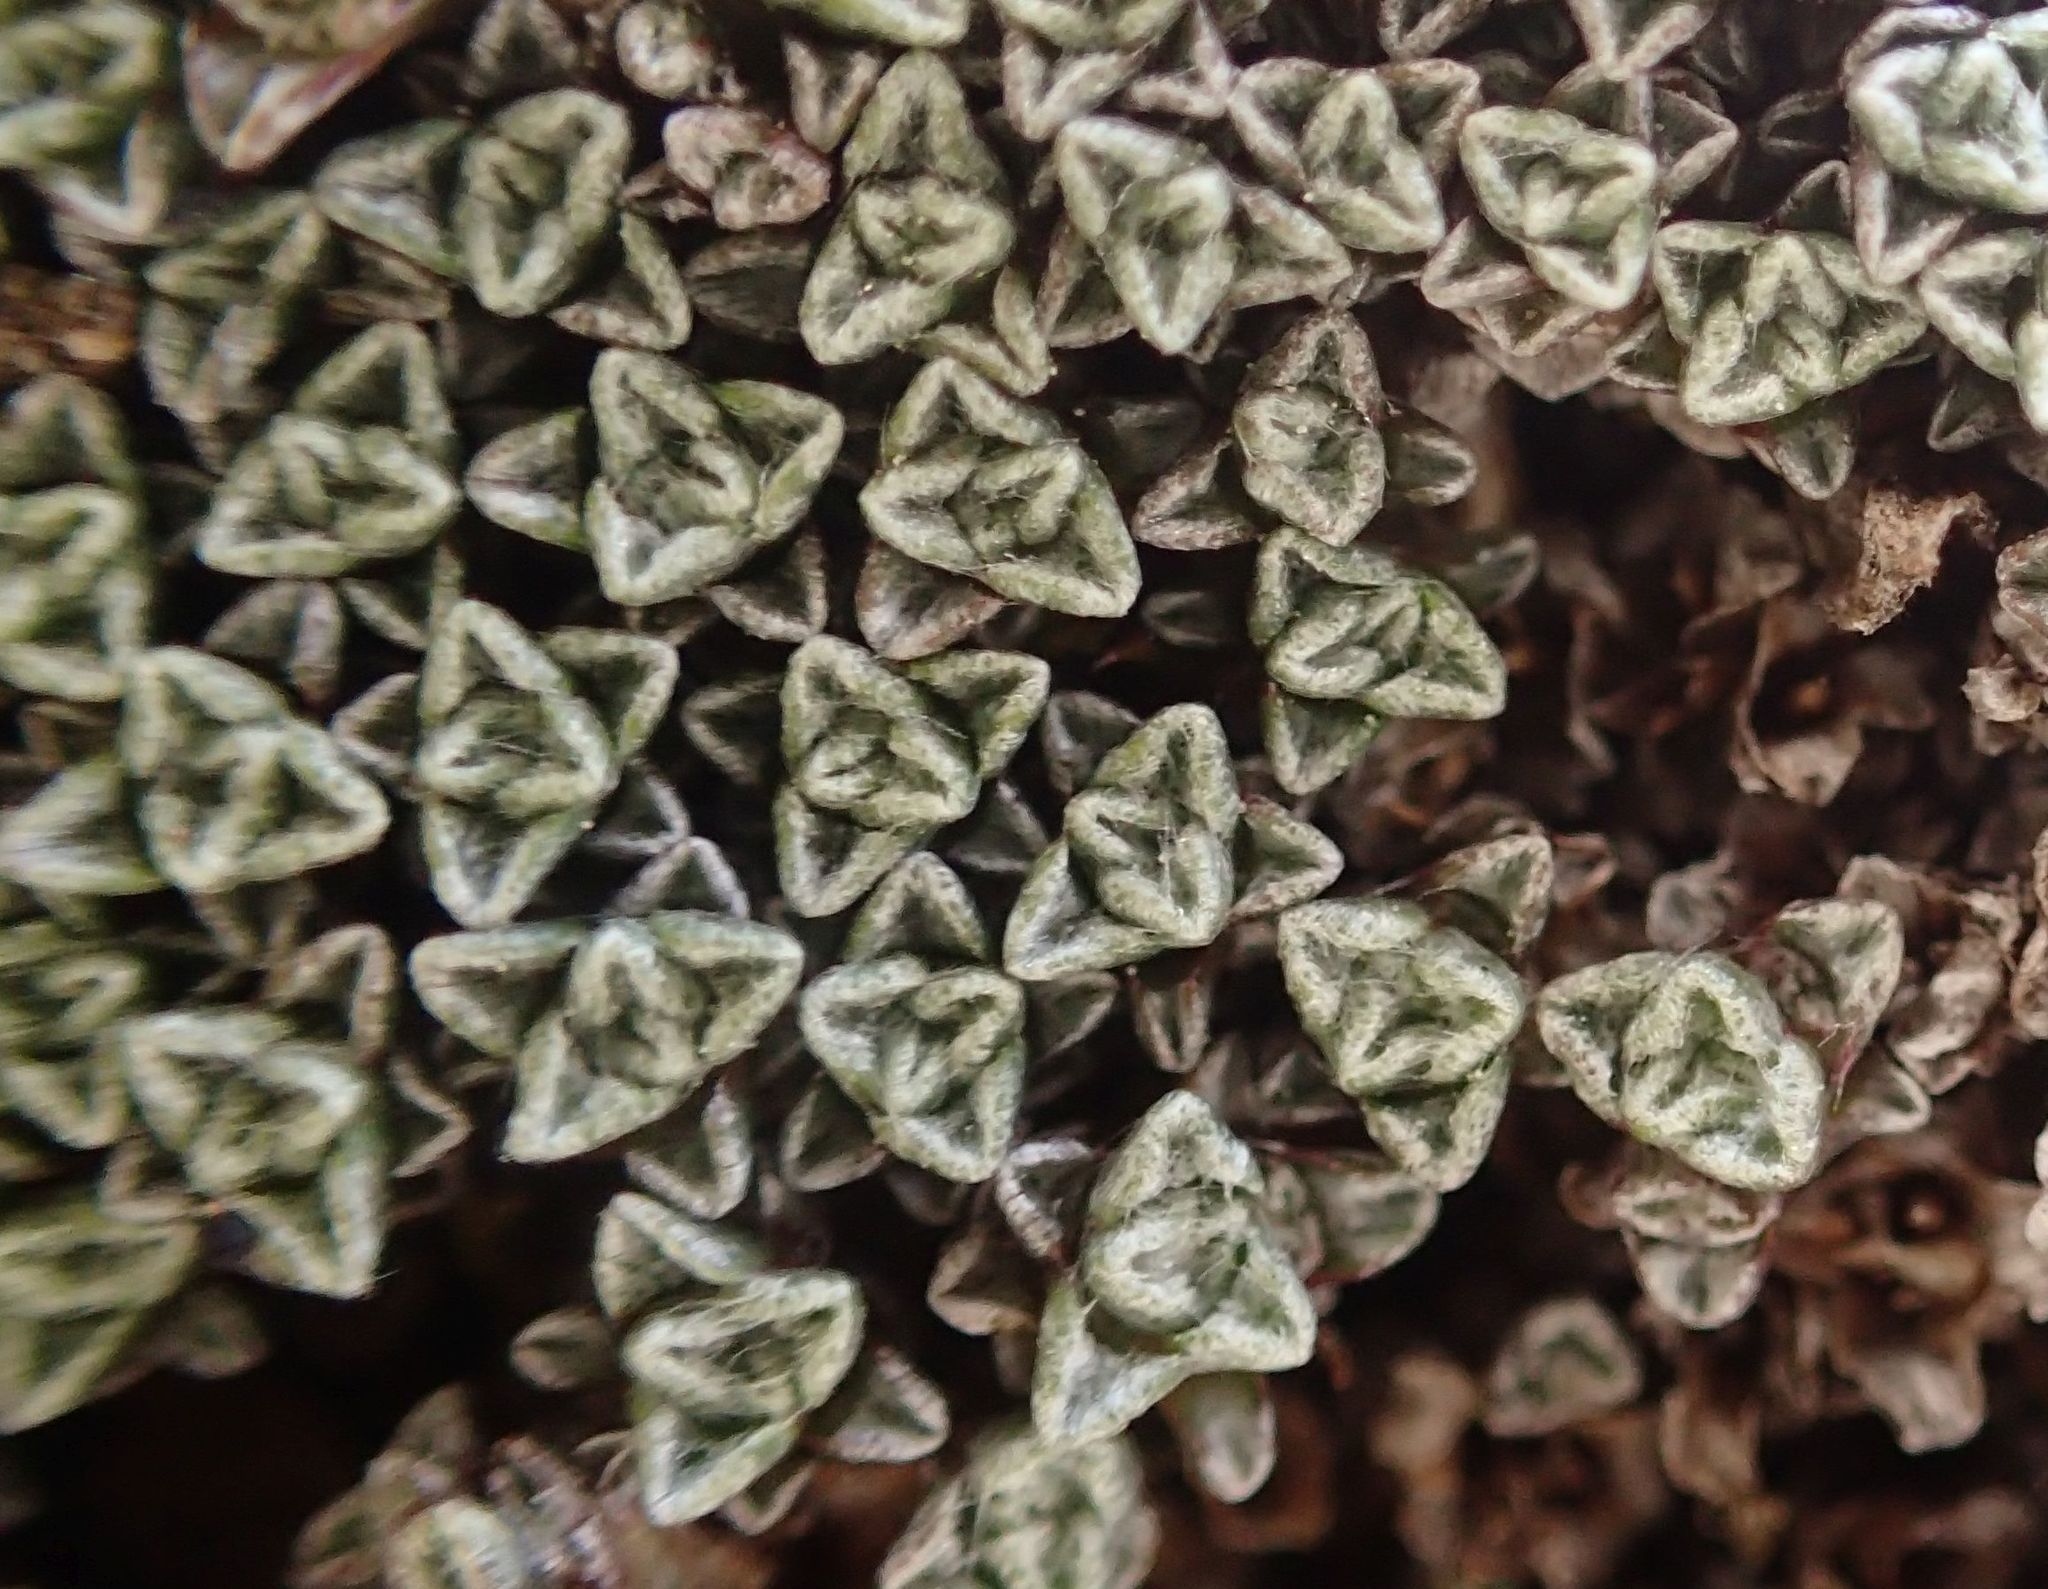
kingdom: Plantae
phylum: Tracheophyta
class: Magnoliopsida
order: Asterales
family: Asteraceae
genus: Raoulia
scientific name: Raoulia australis
